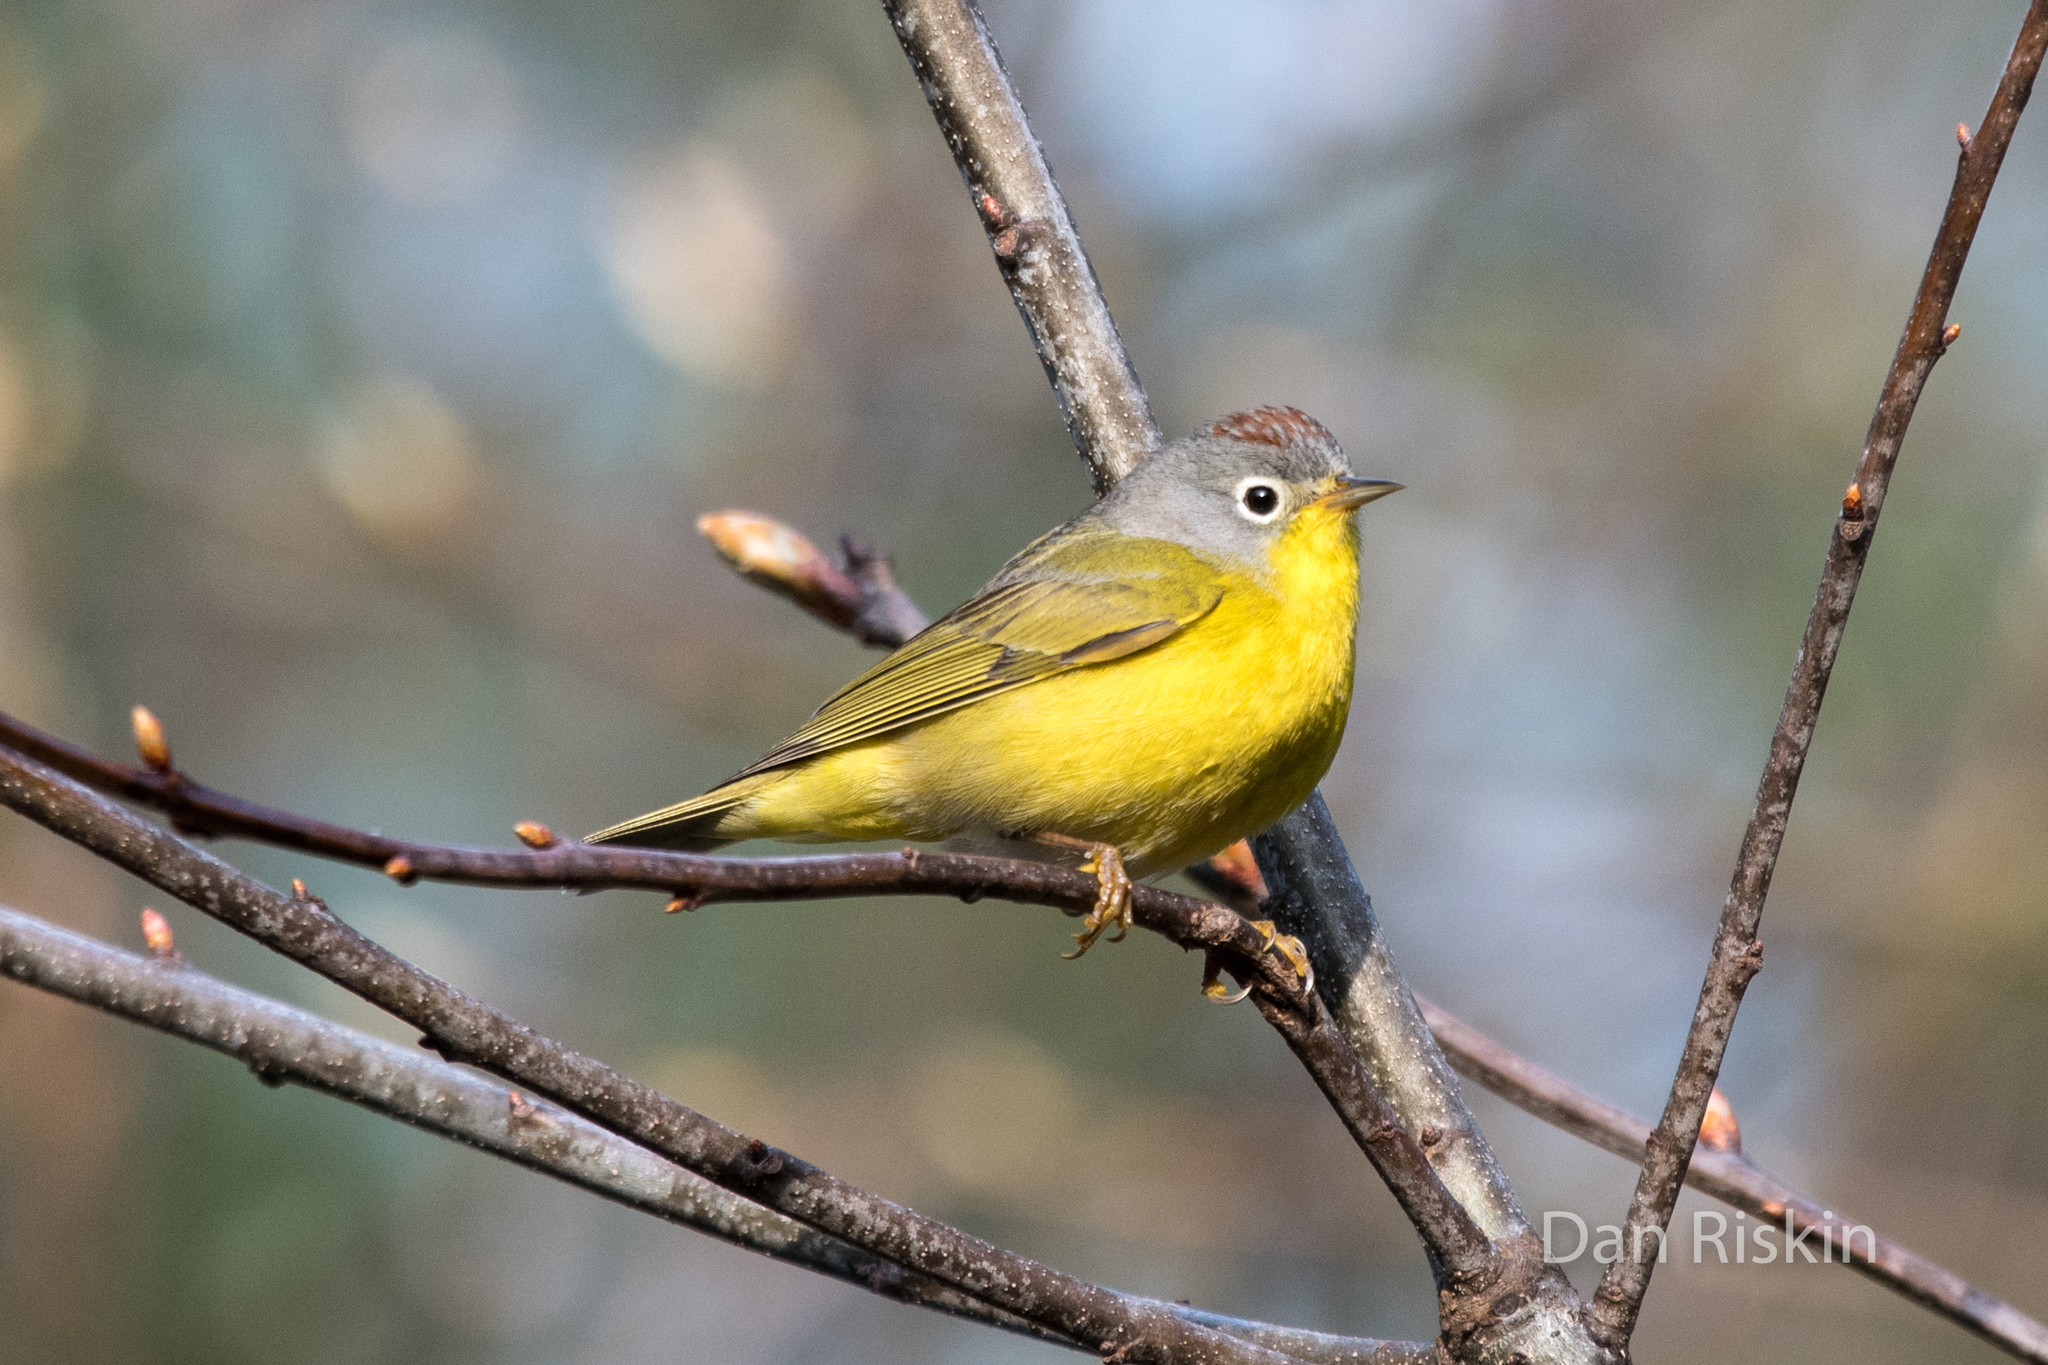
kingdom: Animalia
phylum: Chordata
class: Aves
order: Passeriformes
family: Parulidae
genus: Leiothlypis
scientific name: Leiothlypis ruficapilla
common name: Nashville warbler
